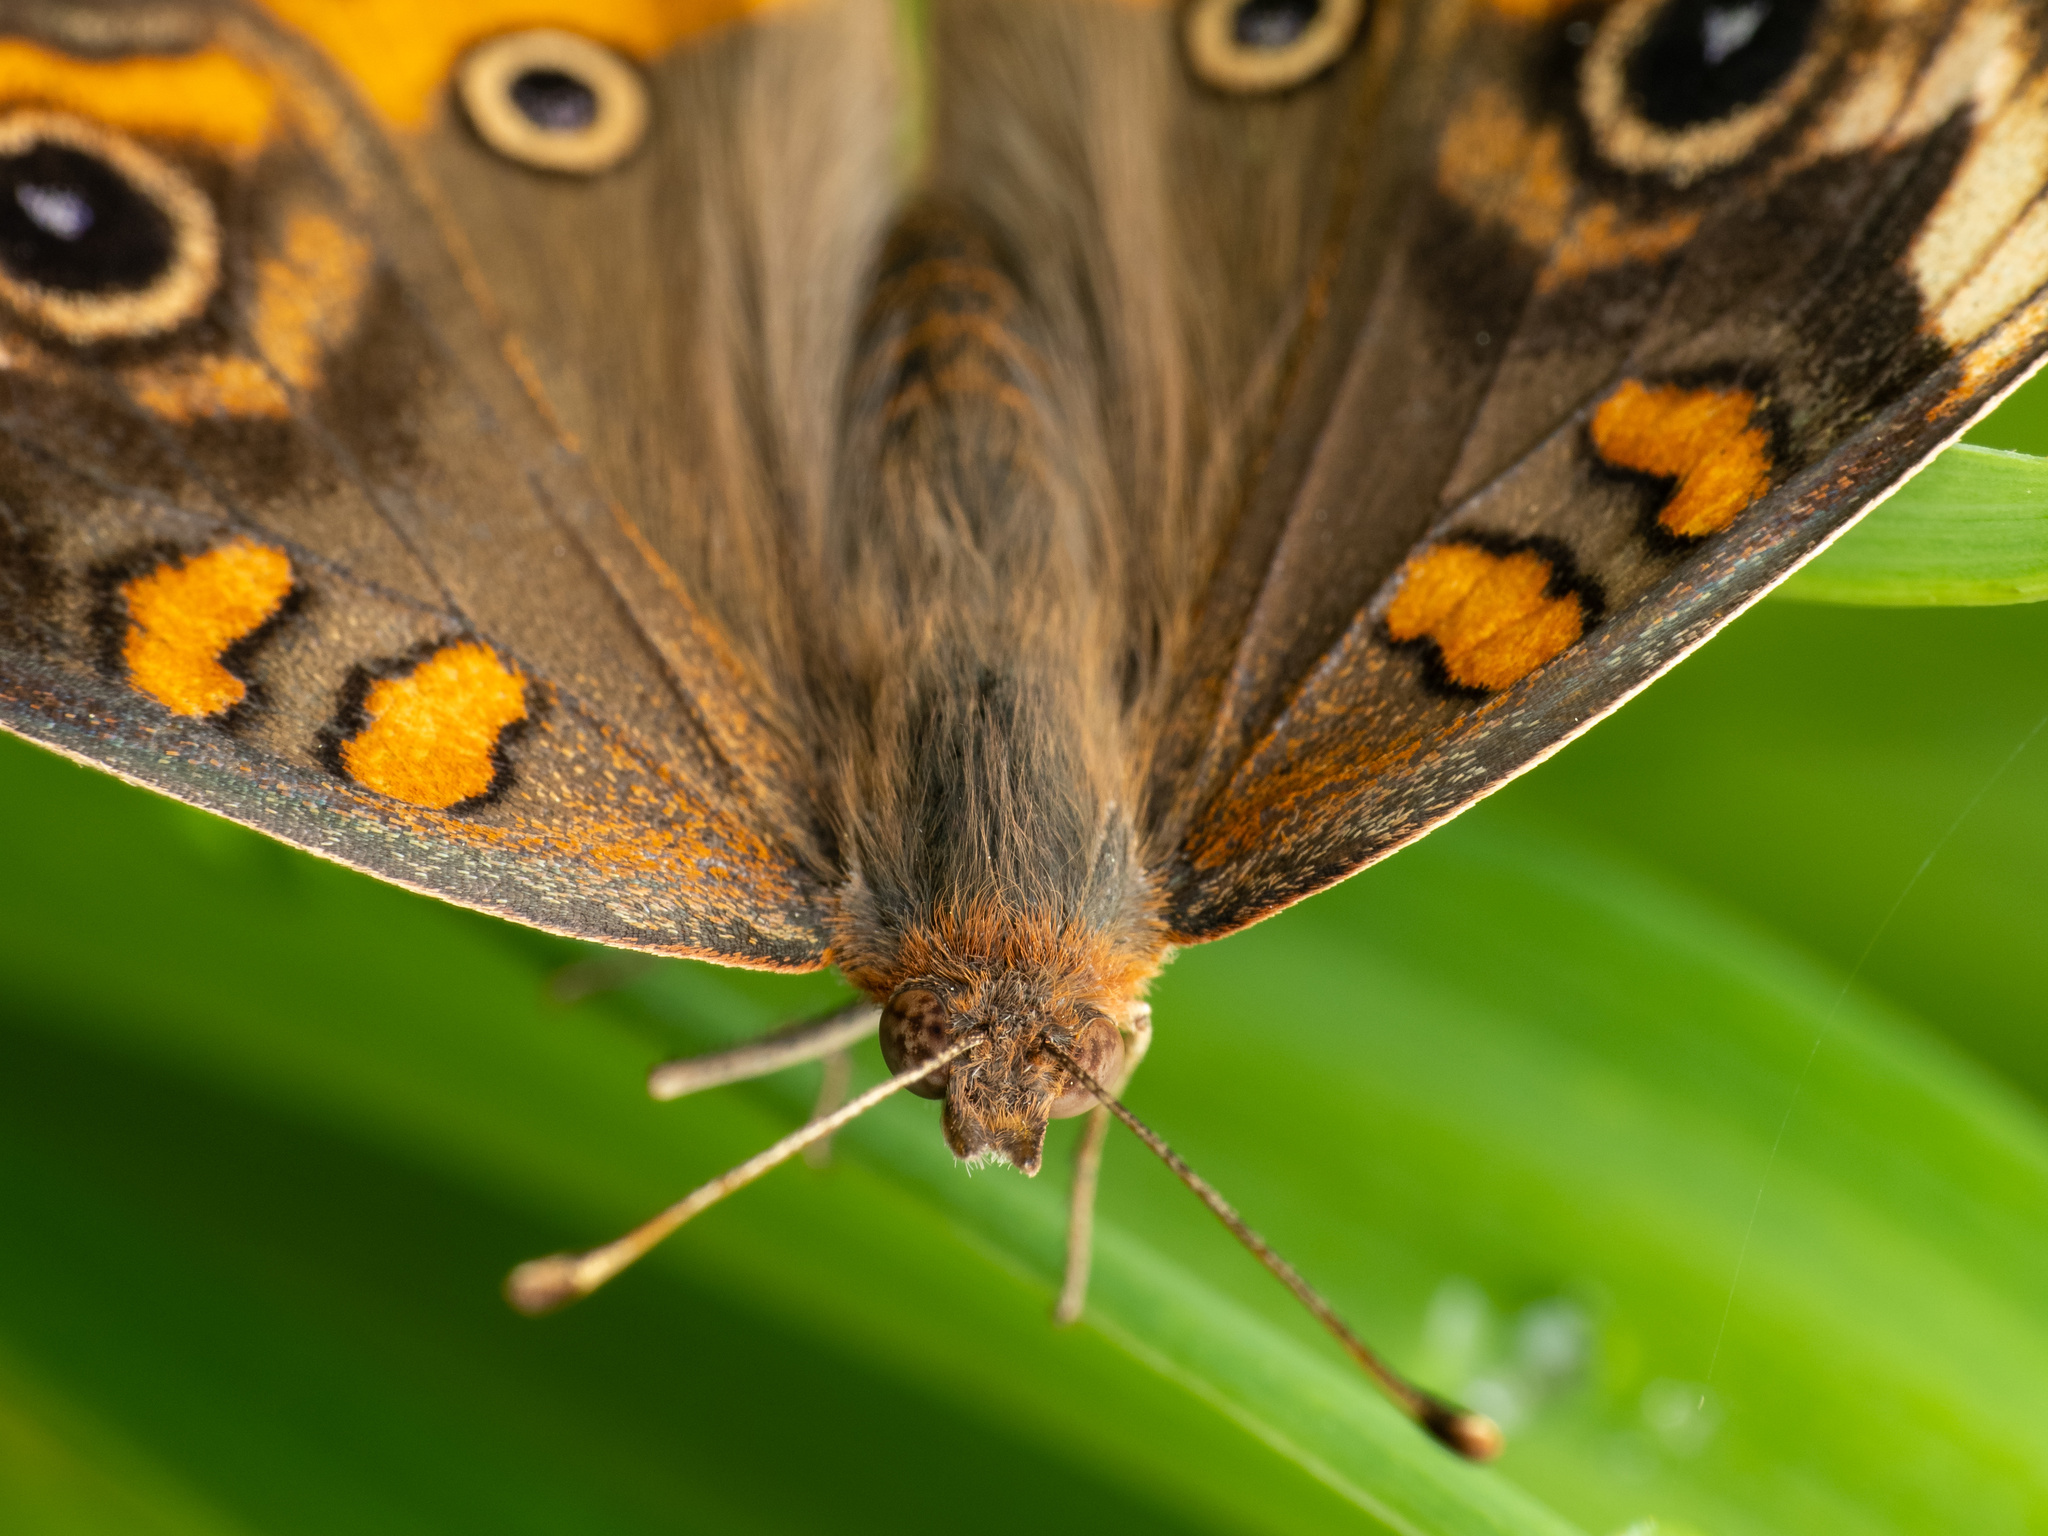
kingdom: Animalia
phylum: Arthropoda
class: Insecta
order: Lepidoptera
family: Nymphalidae
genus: Junonia
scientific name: Junonia coenia
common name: Common buckeye
